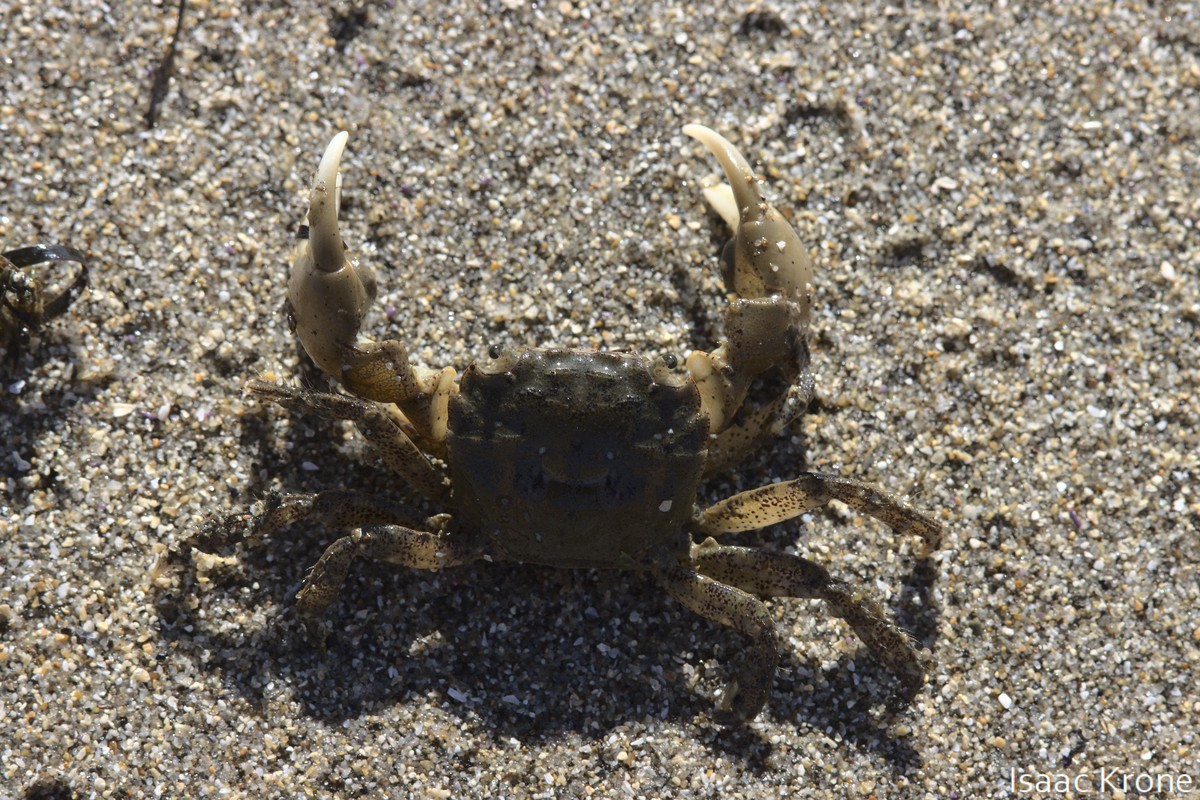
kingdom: Animalia
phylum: Arthropoda
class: Malacostraca
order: Decapoda
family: Varunidae
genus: Hemigrapsus
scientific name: Hemigrapsus oregonensis
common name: Yellow shore crab
